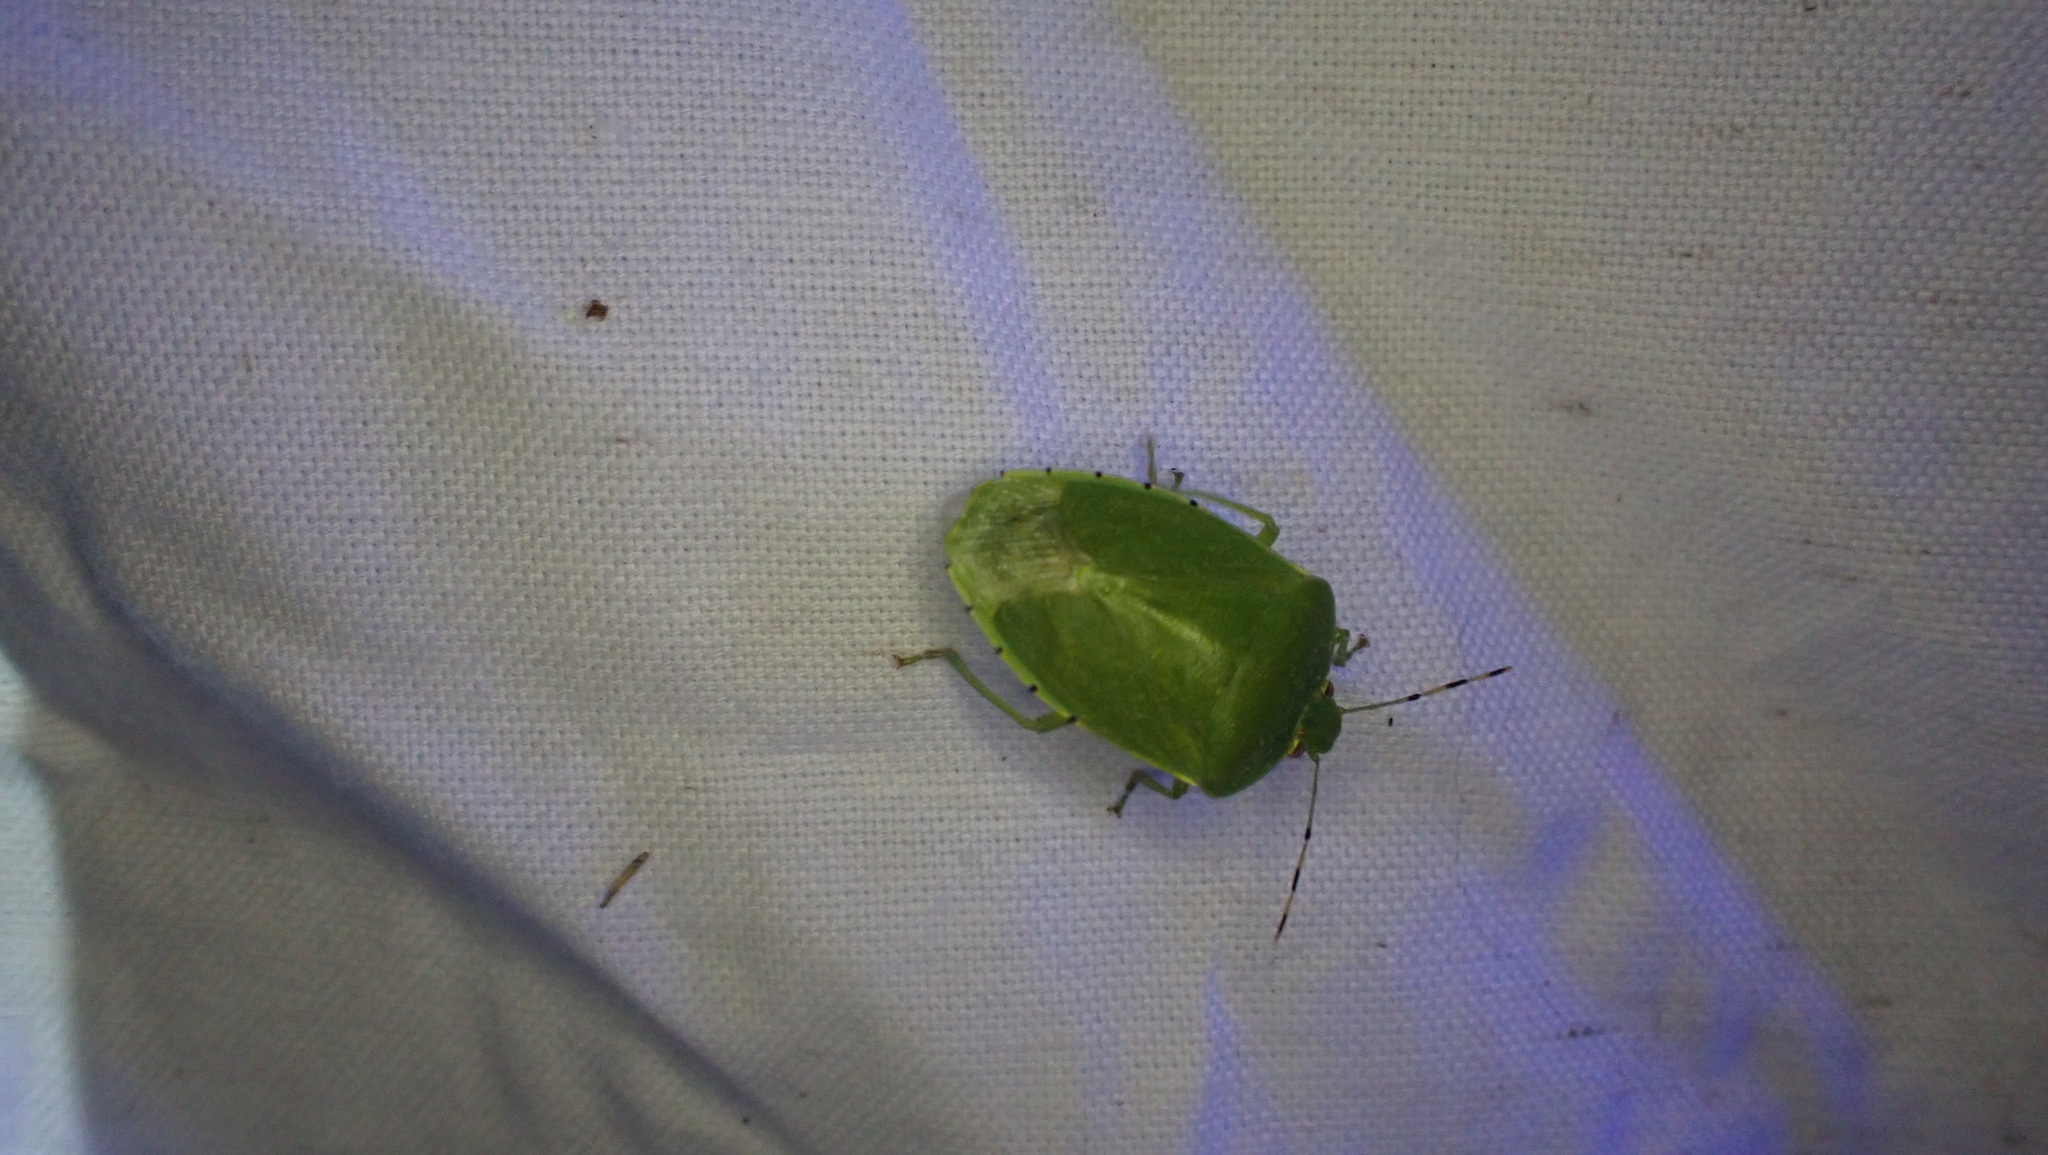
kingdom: Animalia
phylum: Arthropoda
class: Insecta
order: Hemiptera
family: Pentatomidae
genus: Chinavia
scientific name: Chinavia hilaris
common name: Green stink bug
